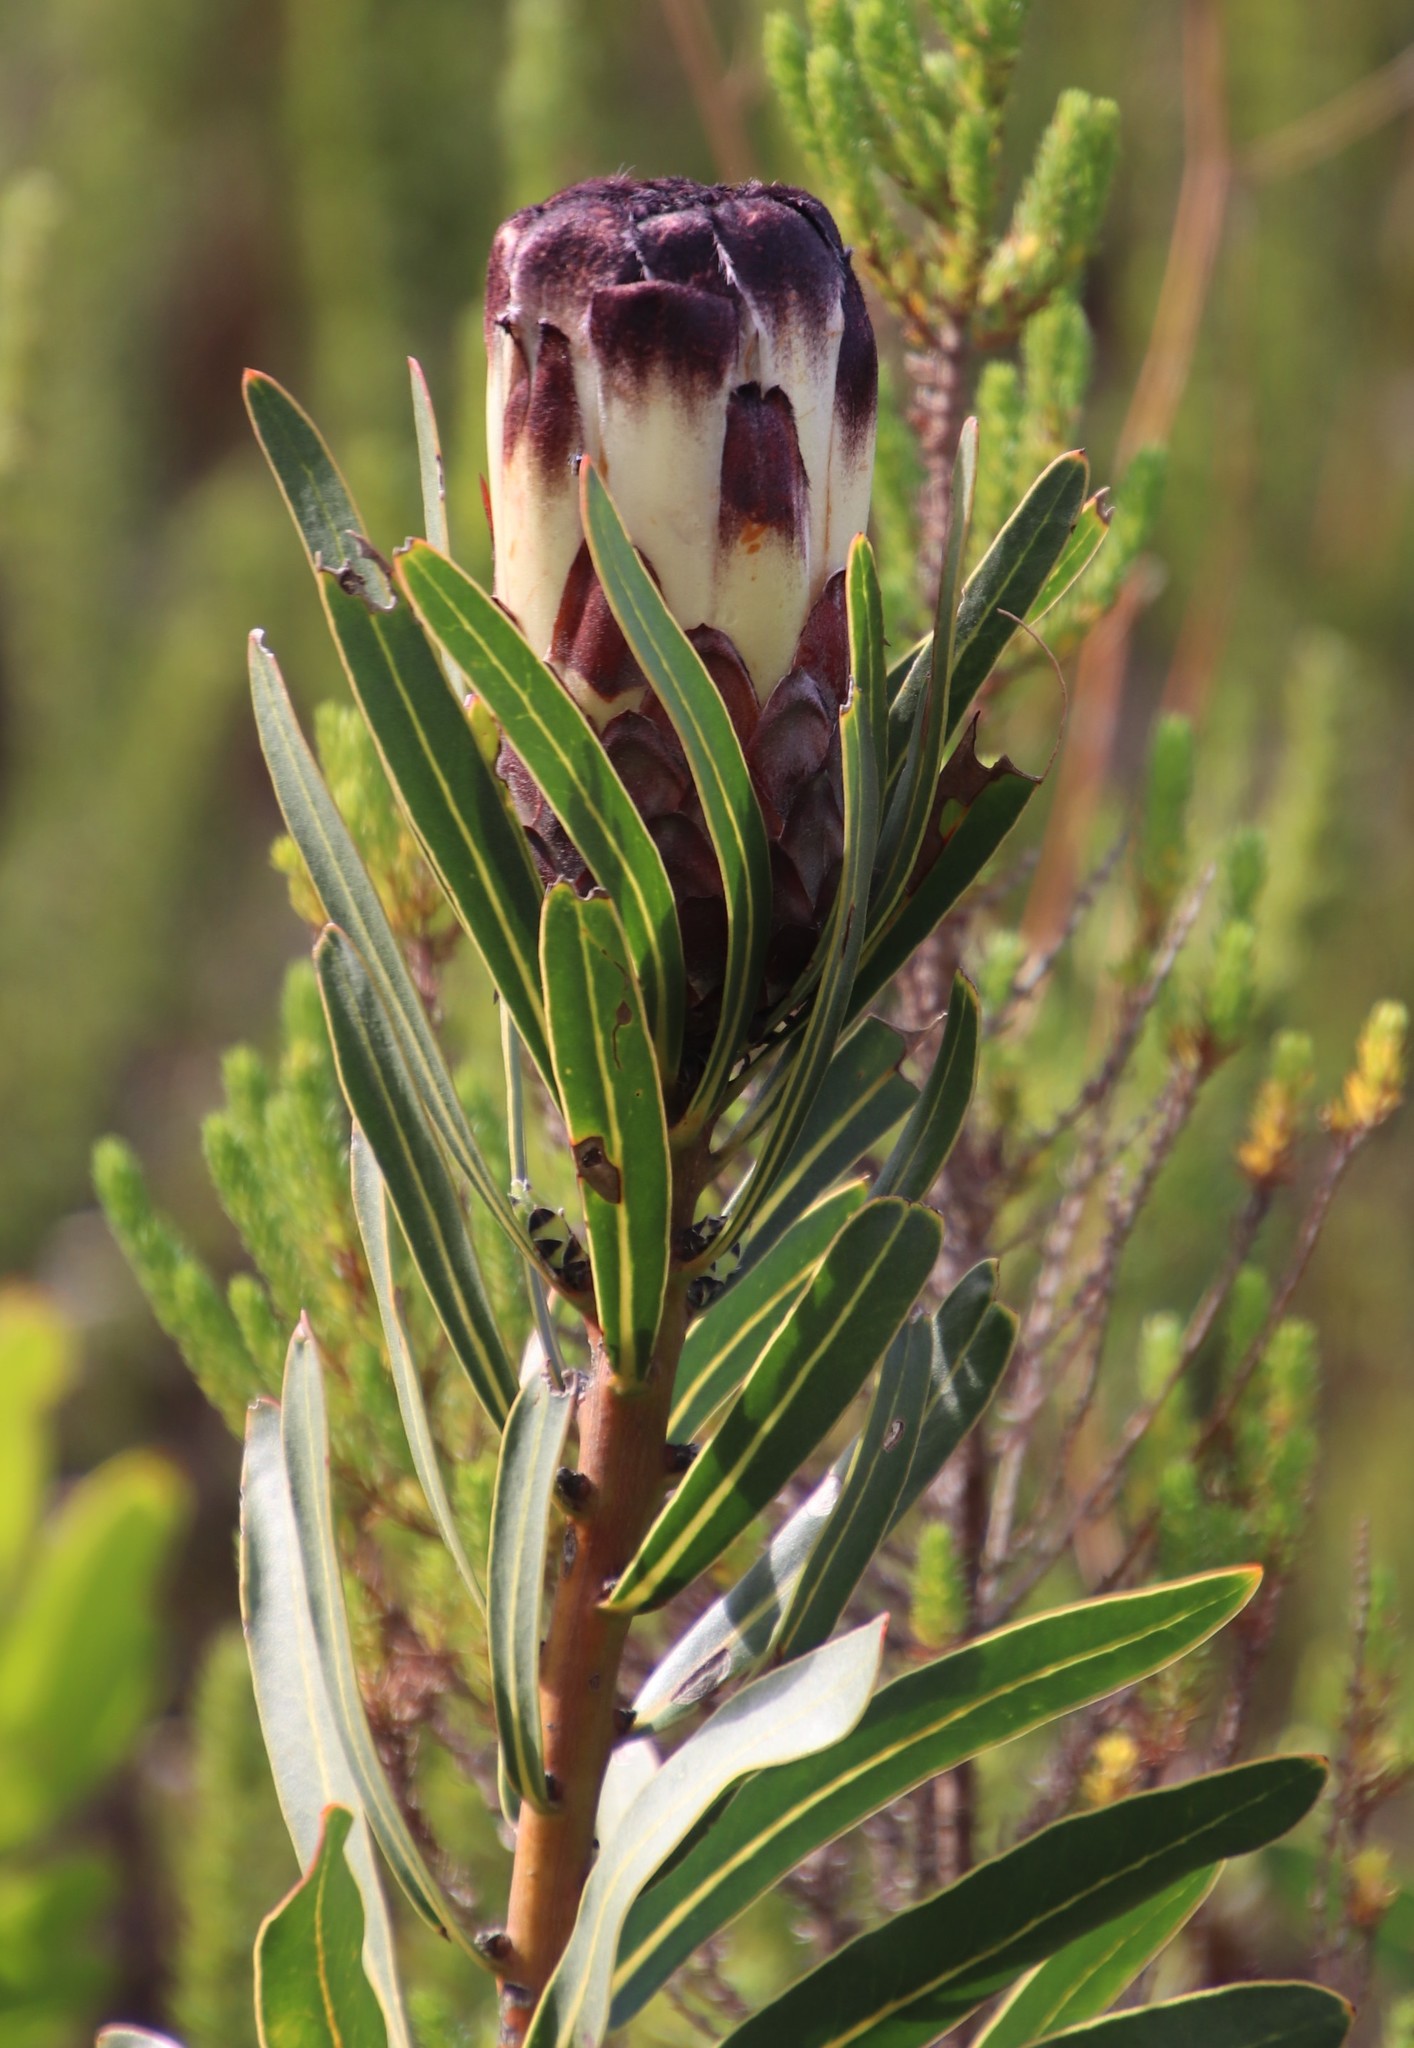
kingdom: Plantae
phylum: Tracheophyta
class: Magnoliopsida
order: Proteales
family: Proteaceae
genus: Protea
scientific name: Protea lepidocarpodendron
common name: Black-bearded protea
